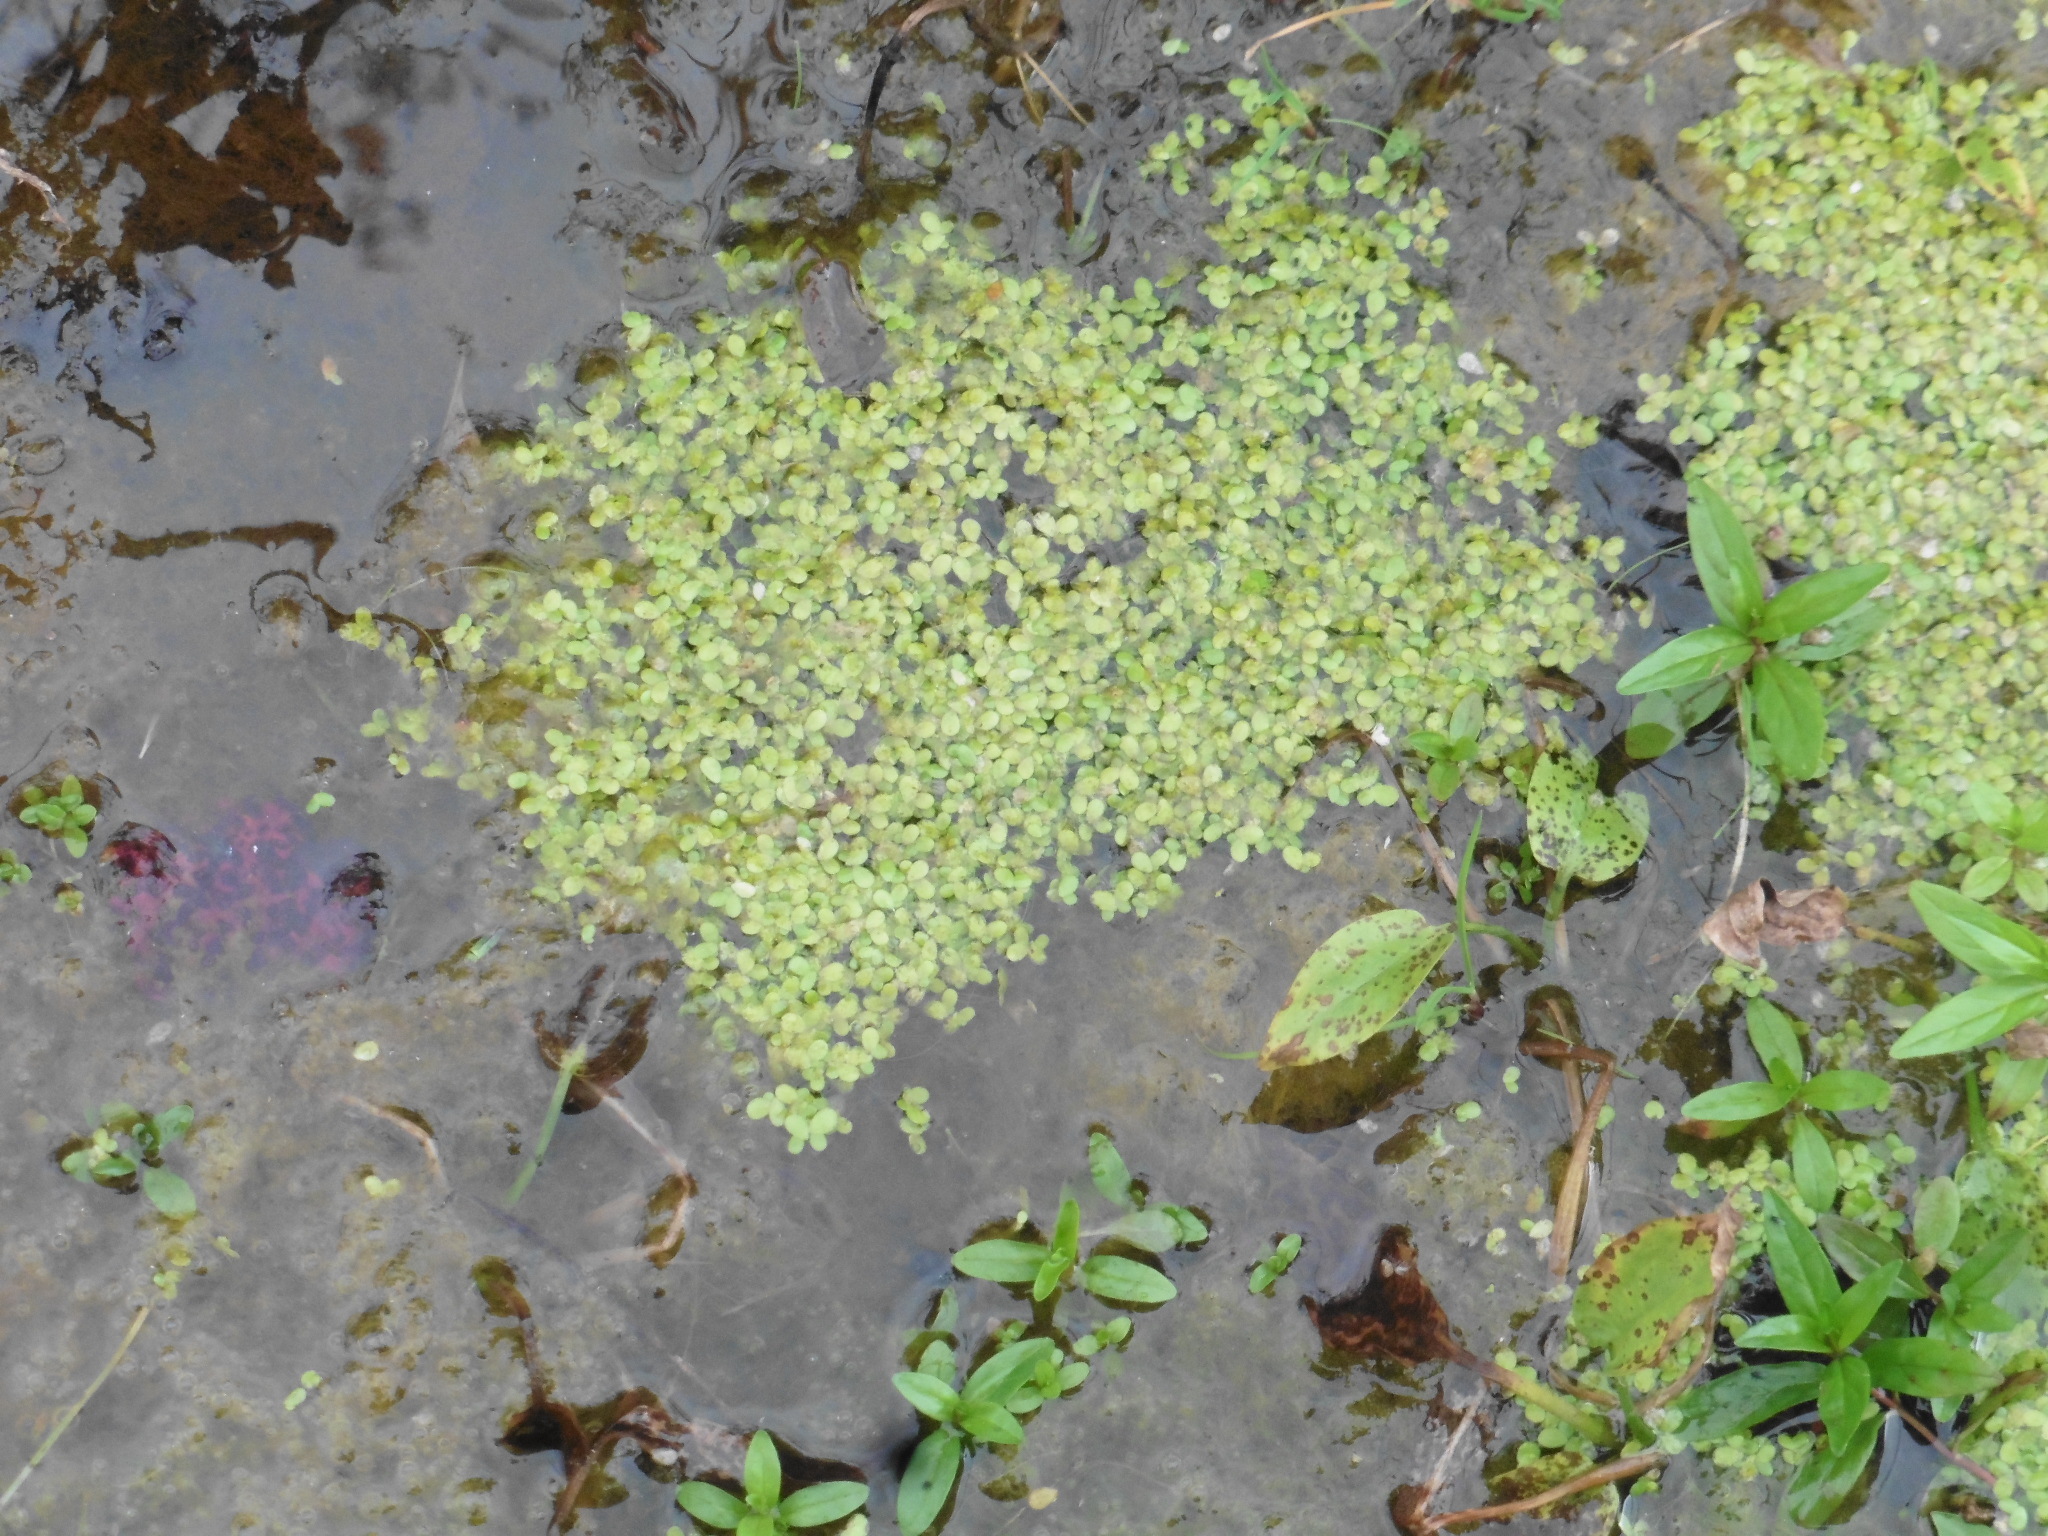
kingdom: Plantae
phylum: Tracheophyta
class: Liliopsida
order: Alismatales
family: Araceae
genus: Lemna
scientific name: Lemna minor
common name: Common duckweed
